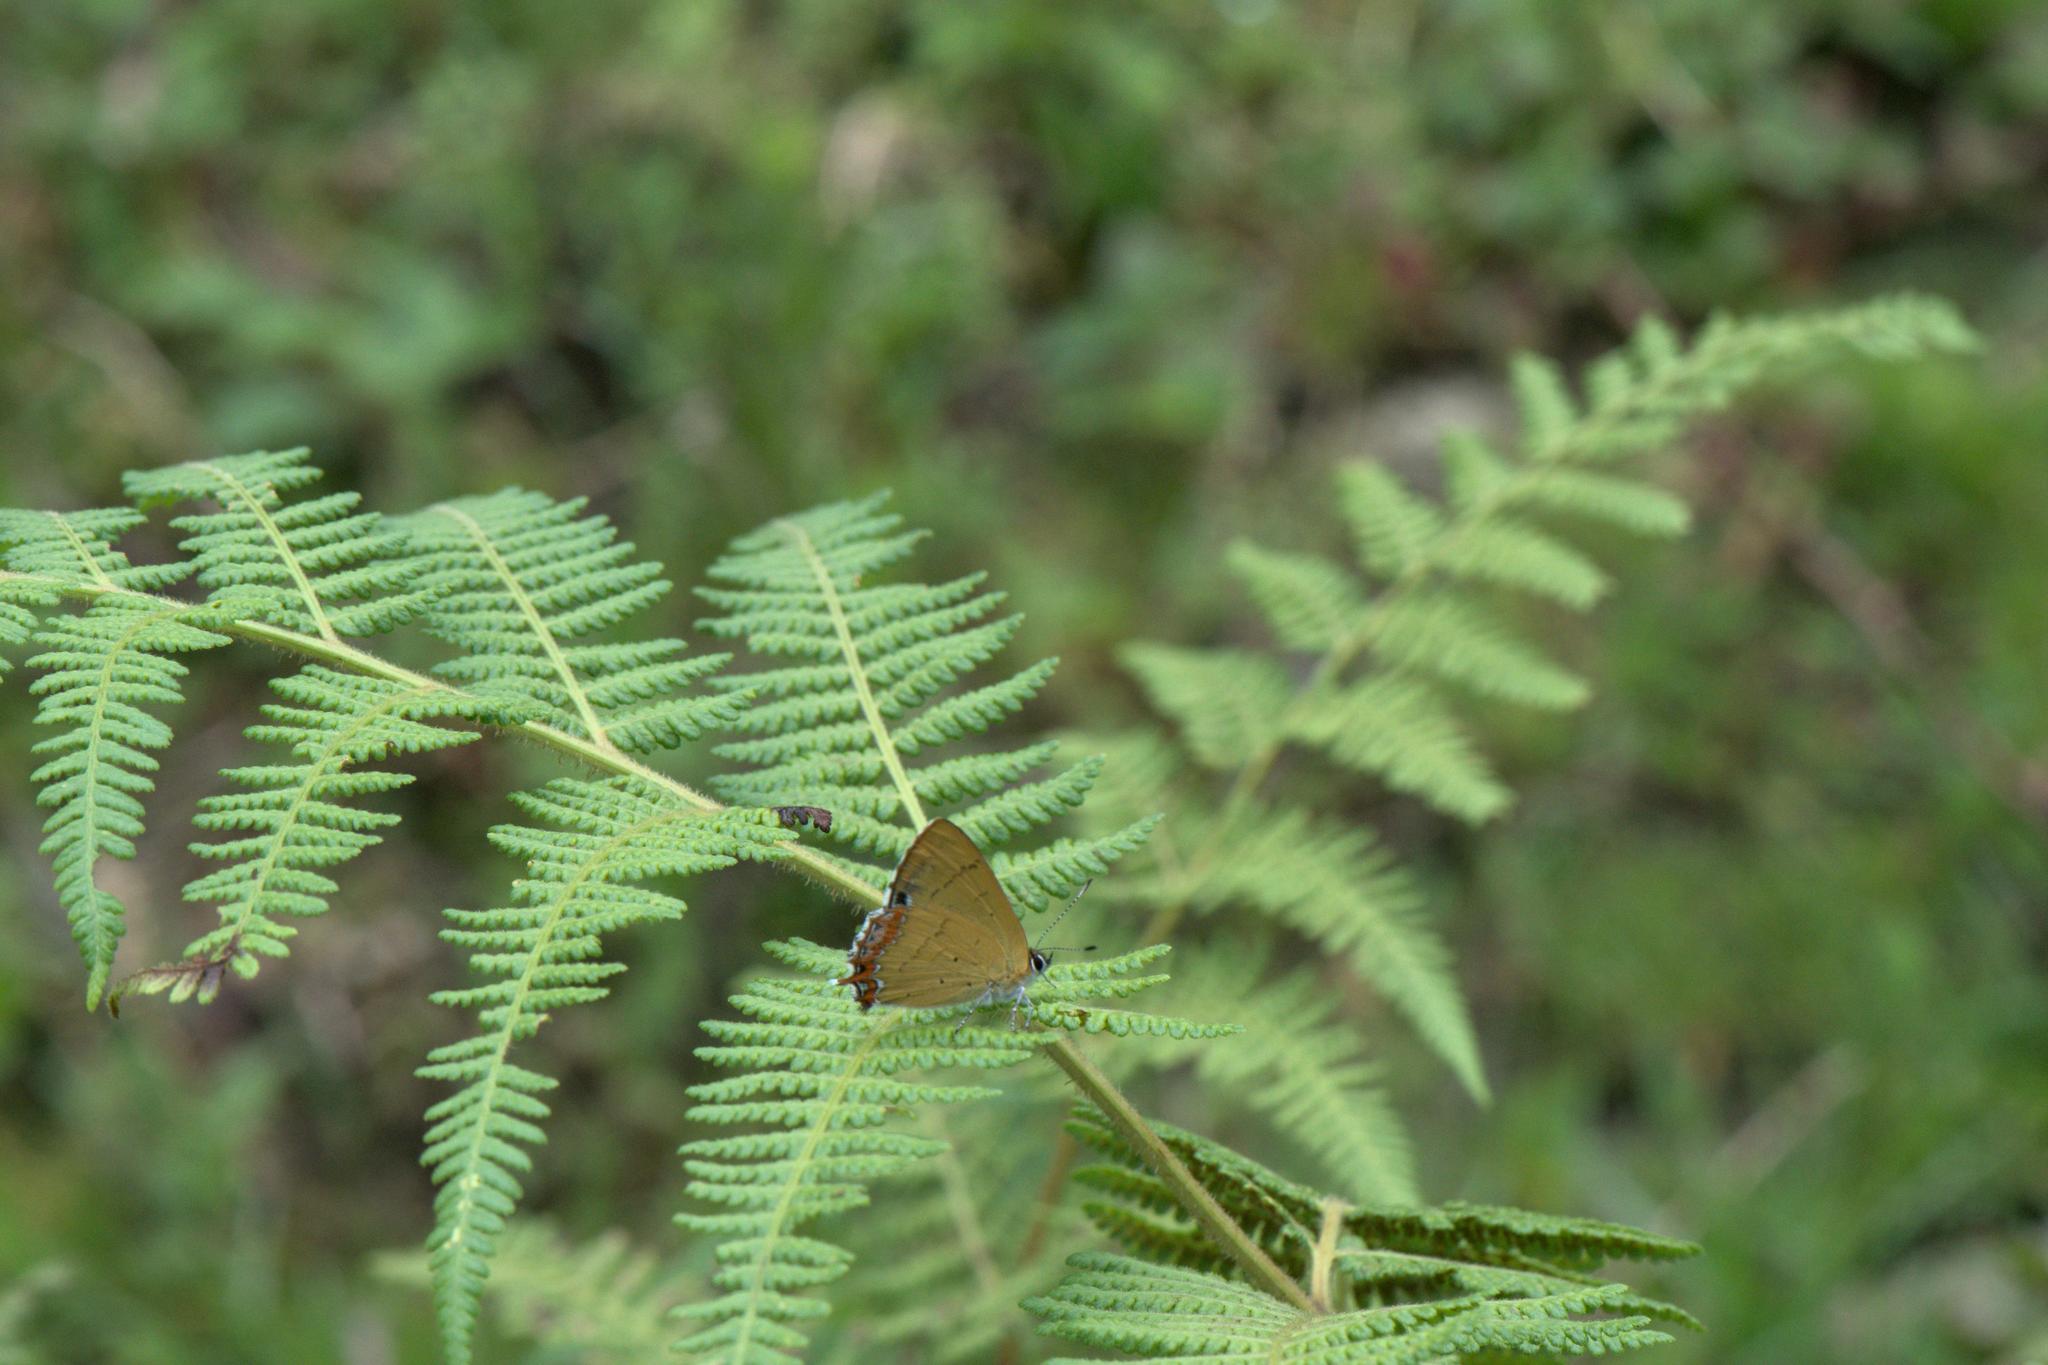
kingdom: Animalia
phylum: Arthropoda
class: Insecta
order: Lepidoptera
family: Lycaenidae
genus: Heliophorus
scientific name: Heliophorus
